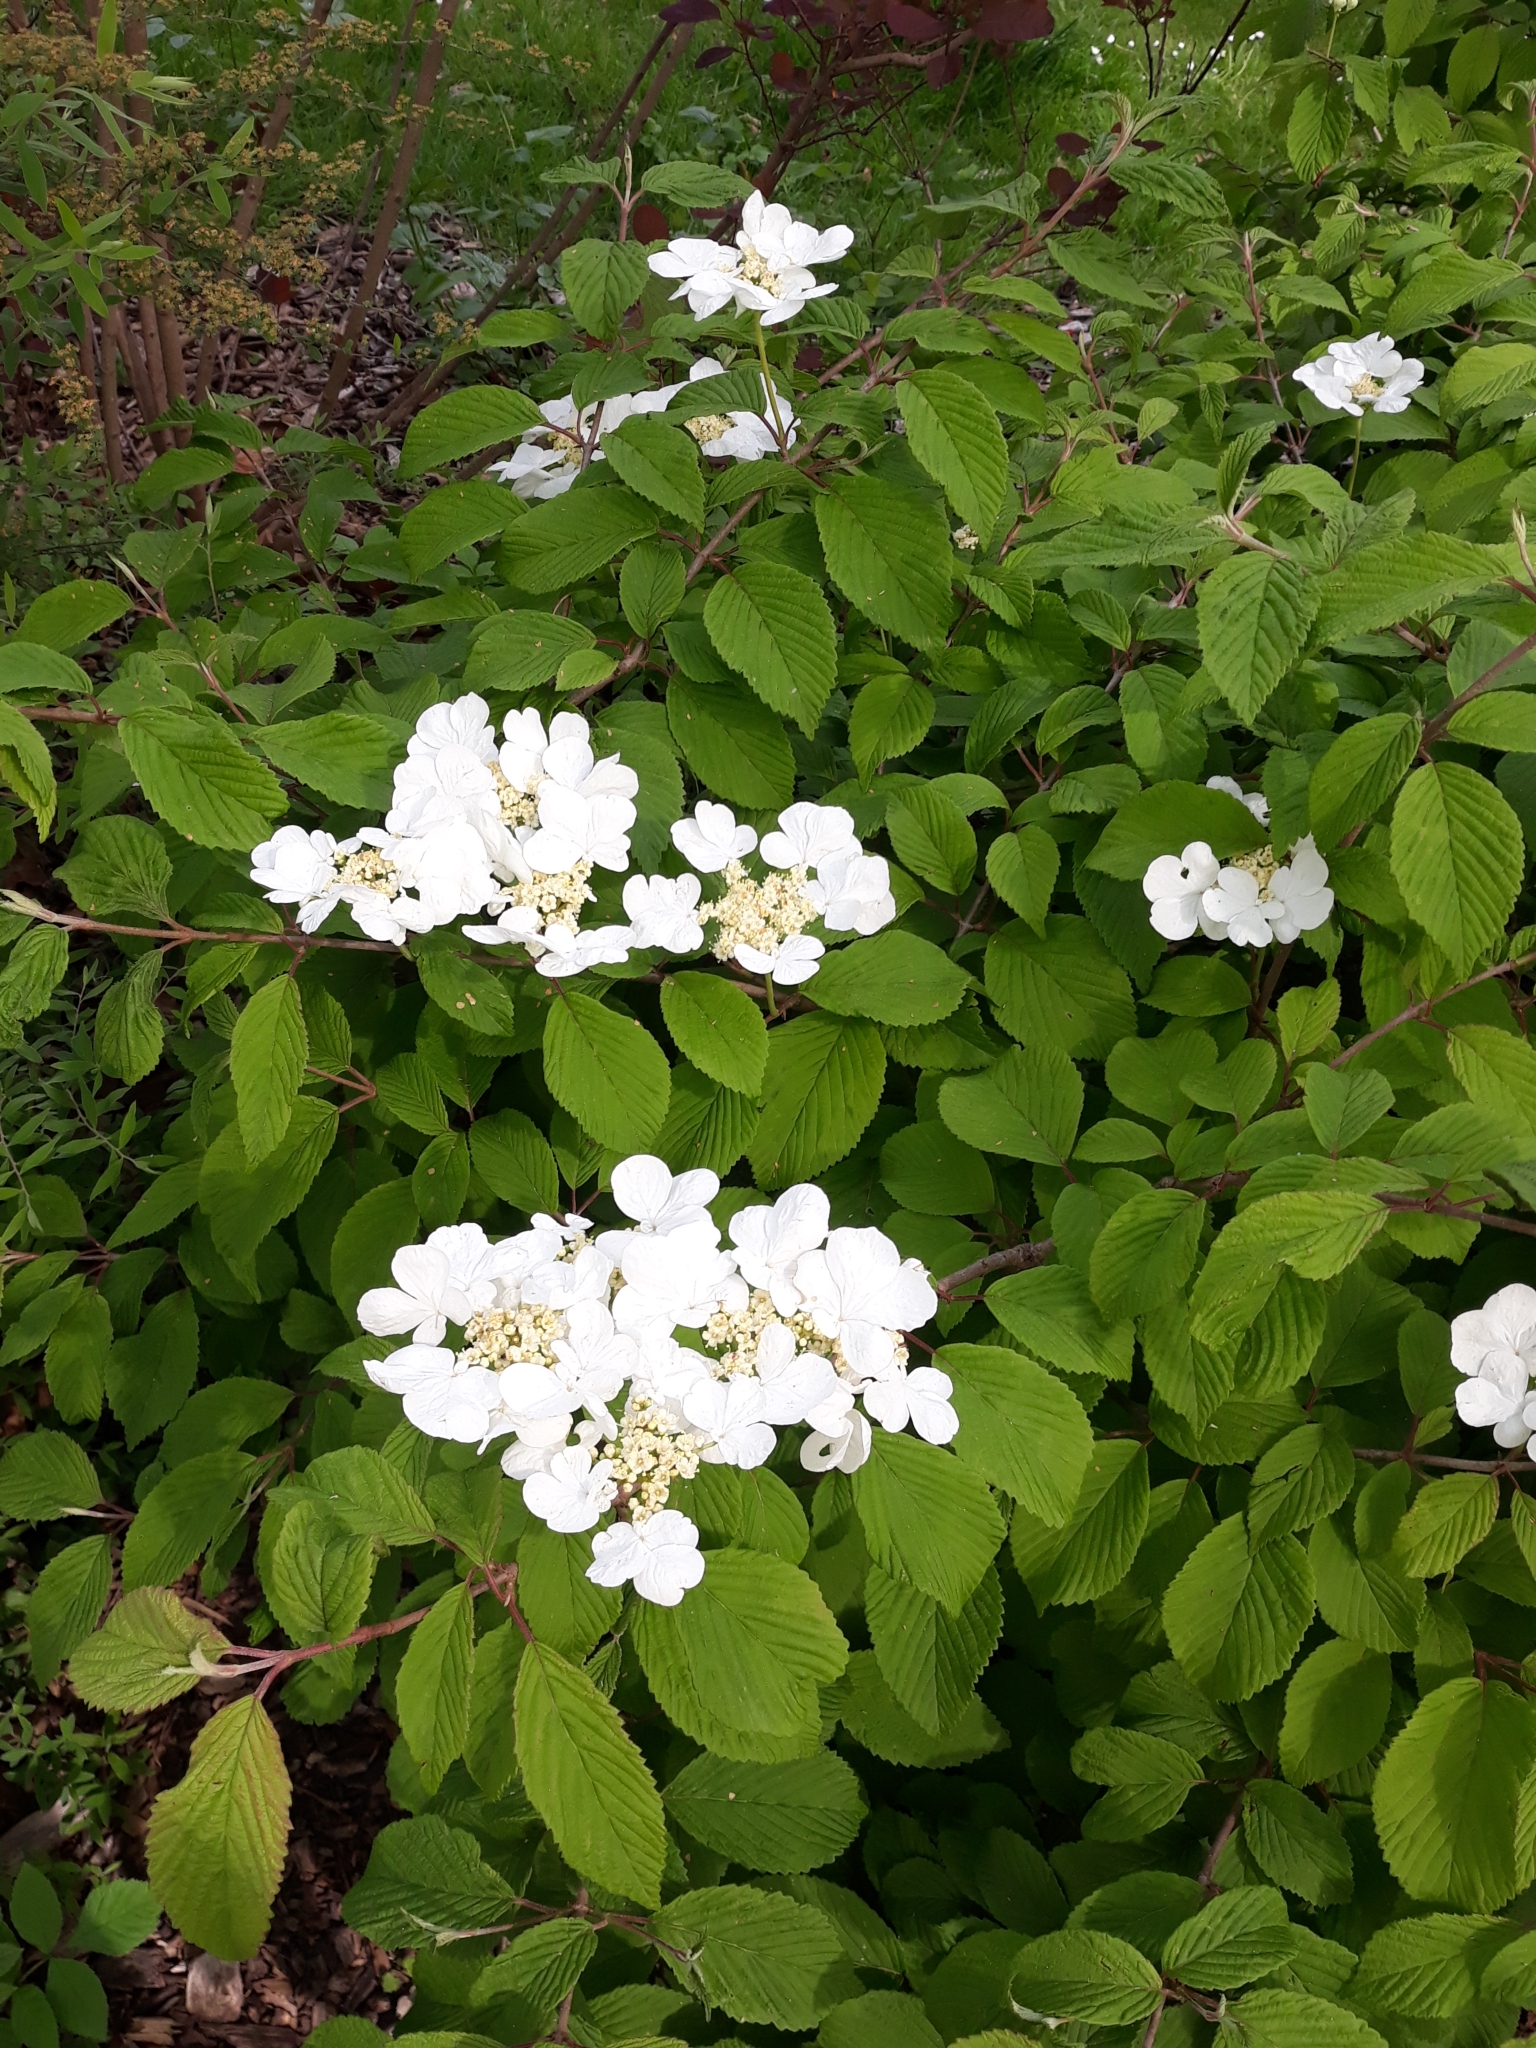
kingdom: Plantae
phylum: Tracheophyta
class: Magnoliopsida
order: Dipsacales
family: Viburnaceae
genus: Viburnum
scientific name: Viburnum plicatum
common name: Japanese snowball
